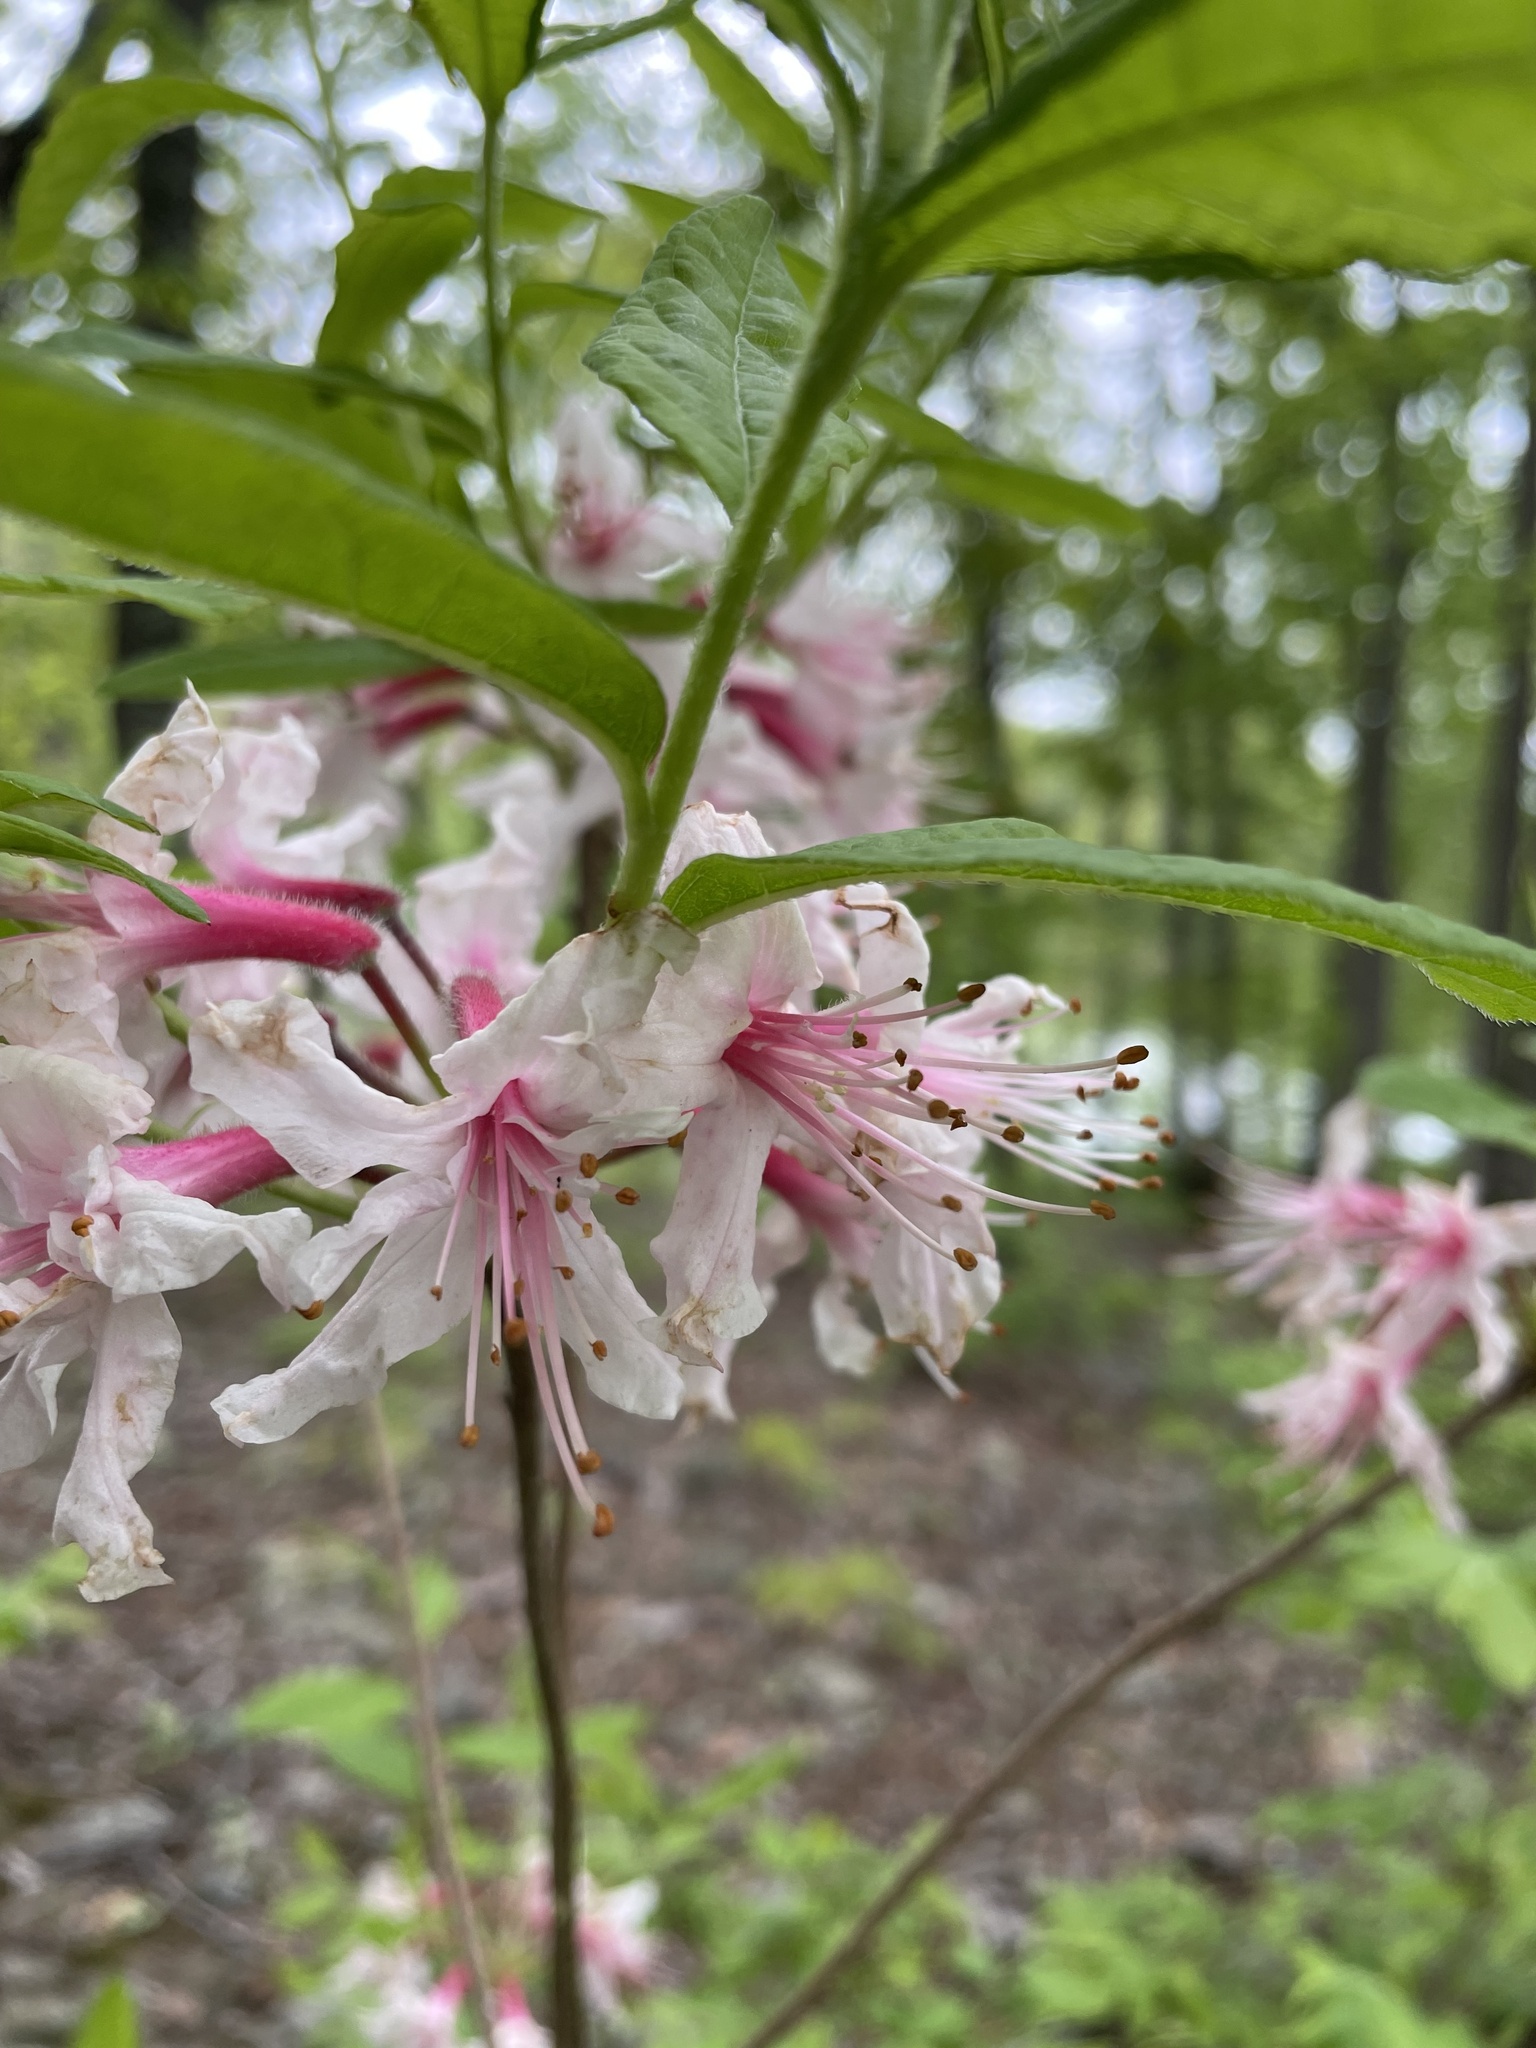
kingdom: Plantae
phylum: Tracheophyta
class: Magnoliopsida
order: Ericales
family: Ericaceae
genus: Rhododendron
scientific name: Rhododendron periclymenoides
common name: Election-pink
